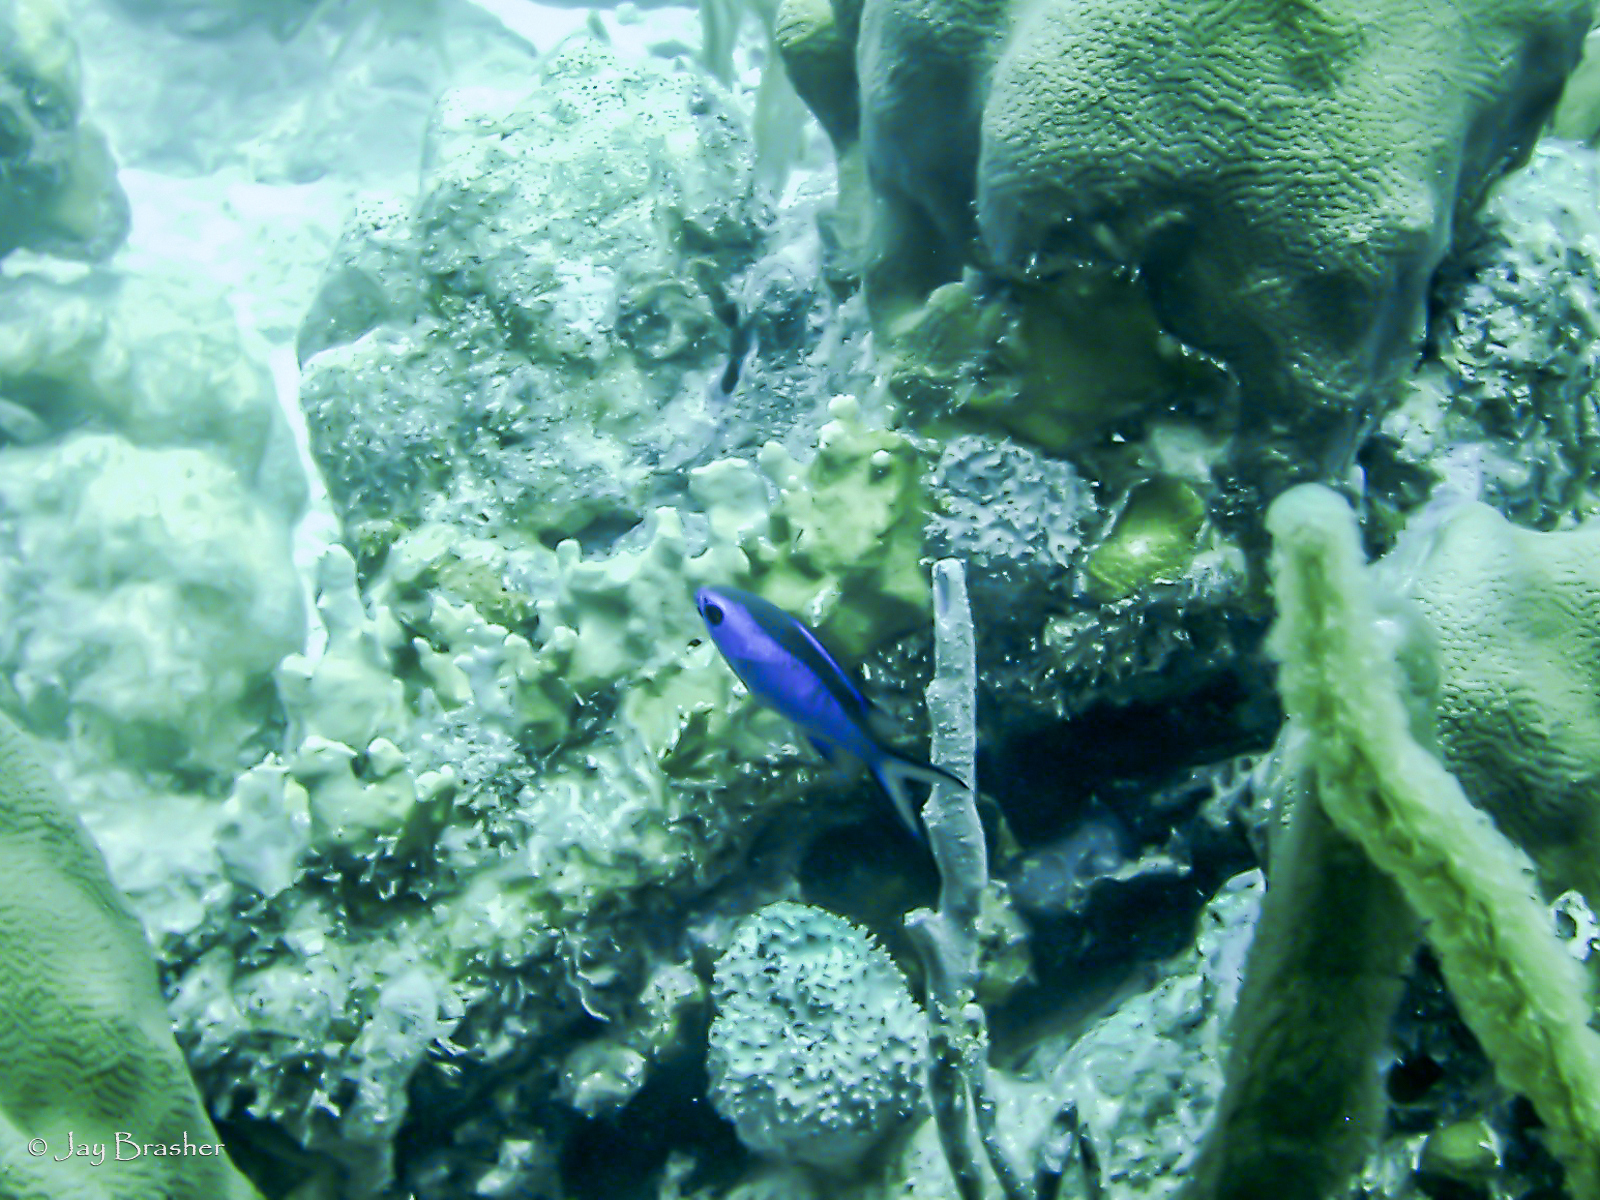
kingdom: Animalia
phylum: Chordata
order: Perciformes
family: Pomacentridae
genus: Chromis
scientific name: Chromis cyanea
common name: Blue chromis
